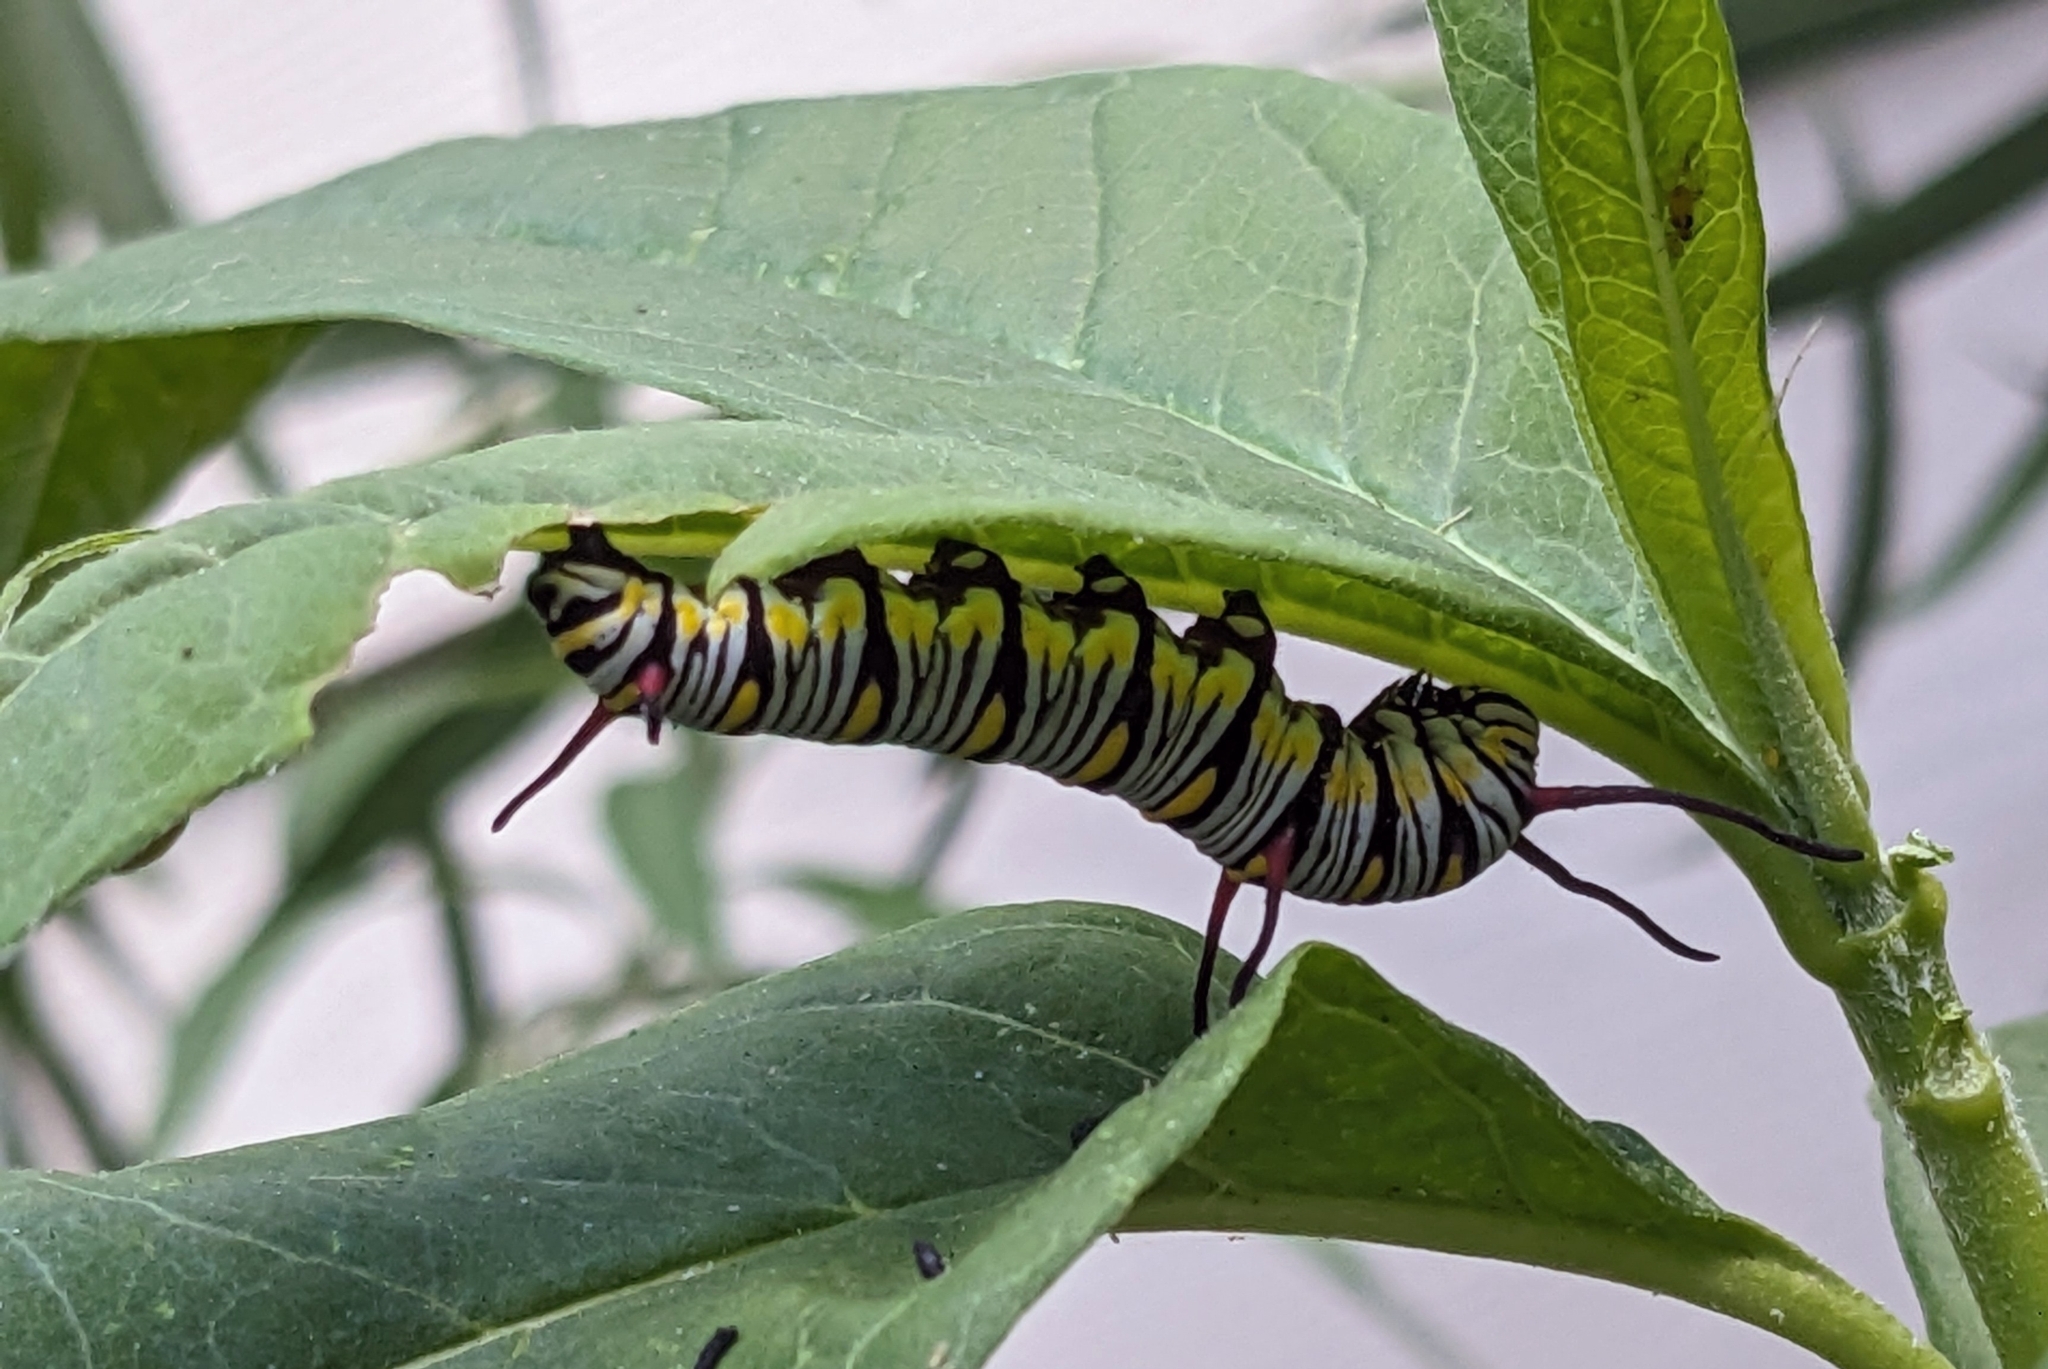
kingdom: Animalia
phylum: Arthropoda
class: Insecta
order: Lepidoptera
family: Nymphalidae
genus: Danaus
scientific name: Danaus gilippus
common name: Queen
